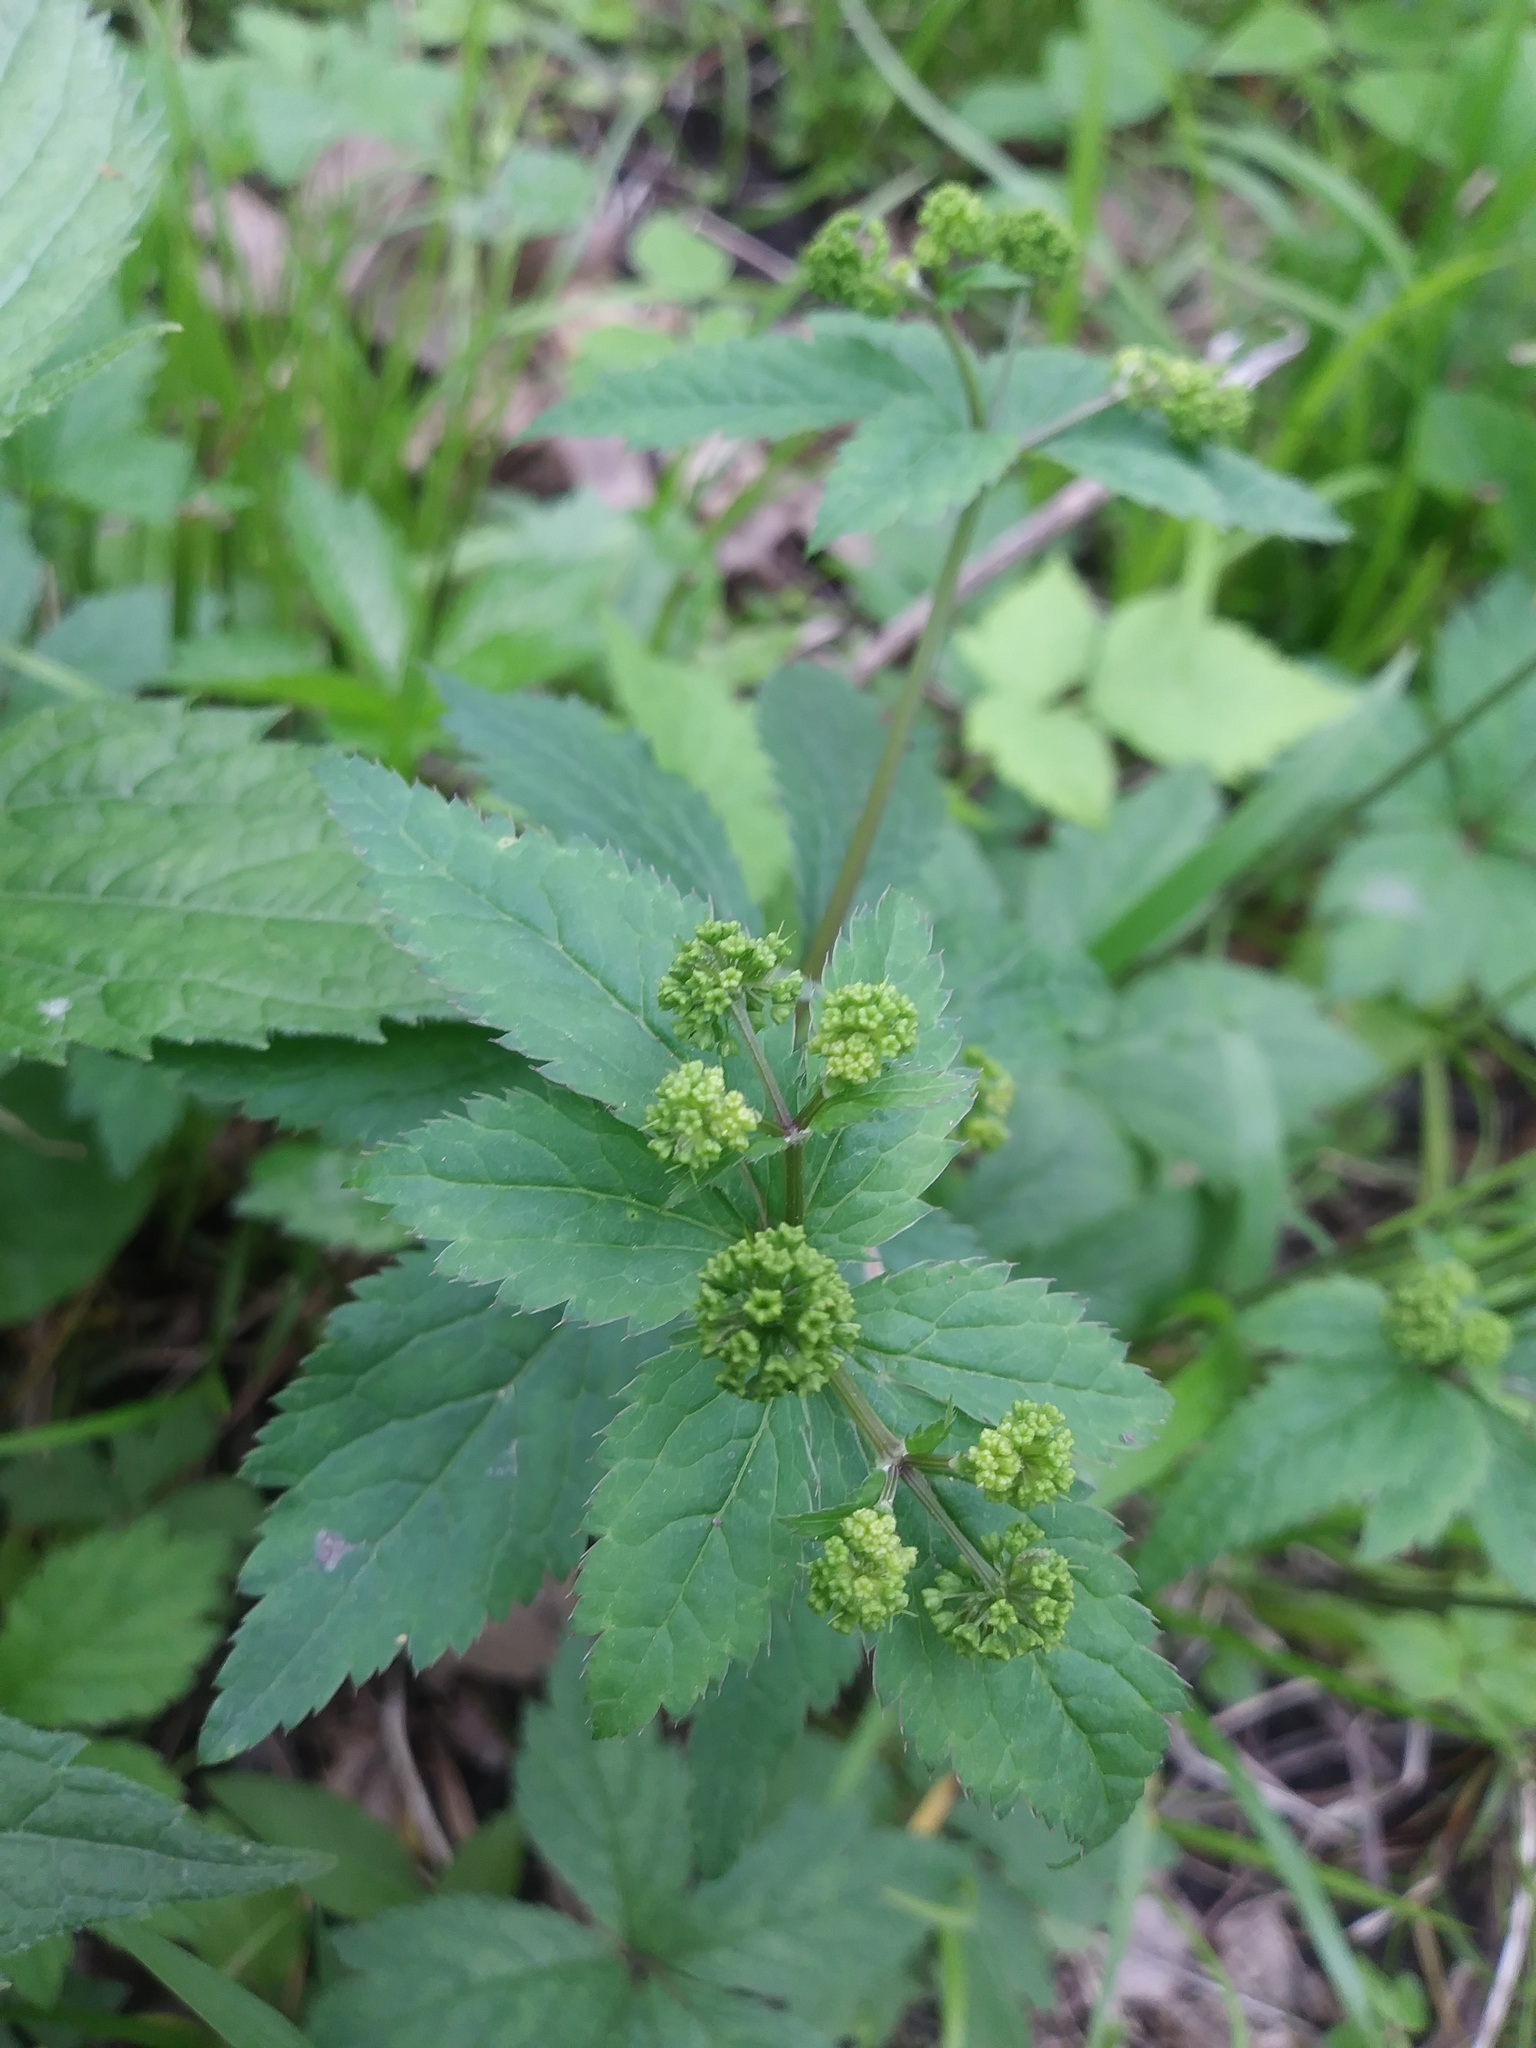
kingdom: Plantae
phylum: Tracheophyta
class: Magnoliopsida
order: Apiales
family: Apiaceae
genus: Sanicula
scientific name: Sanicula odorata
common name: Cluster sanicle
